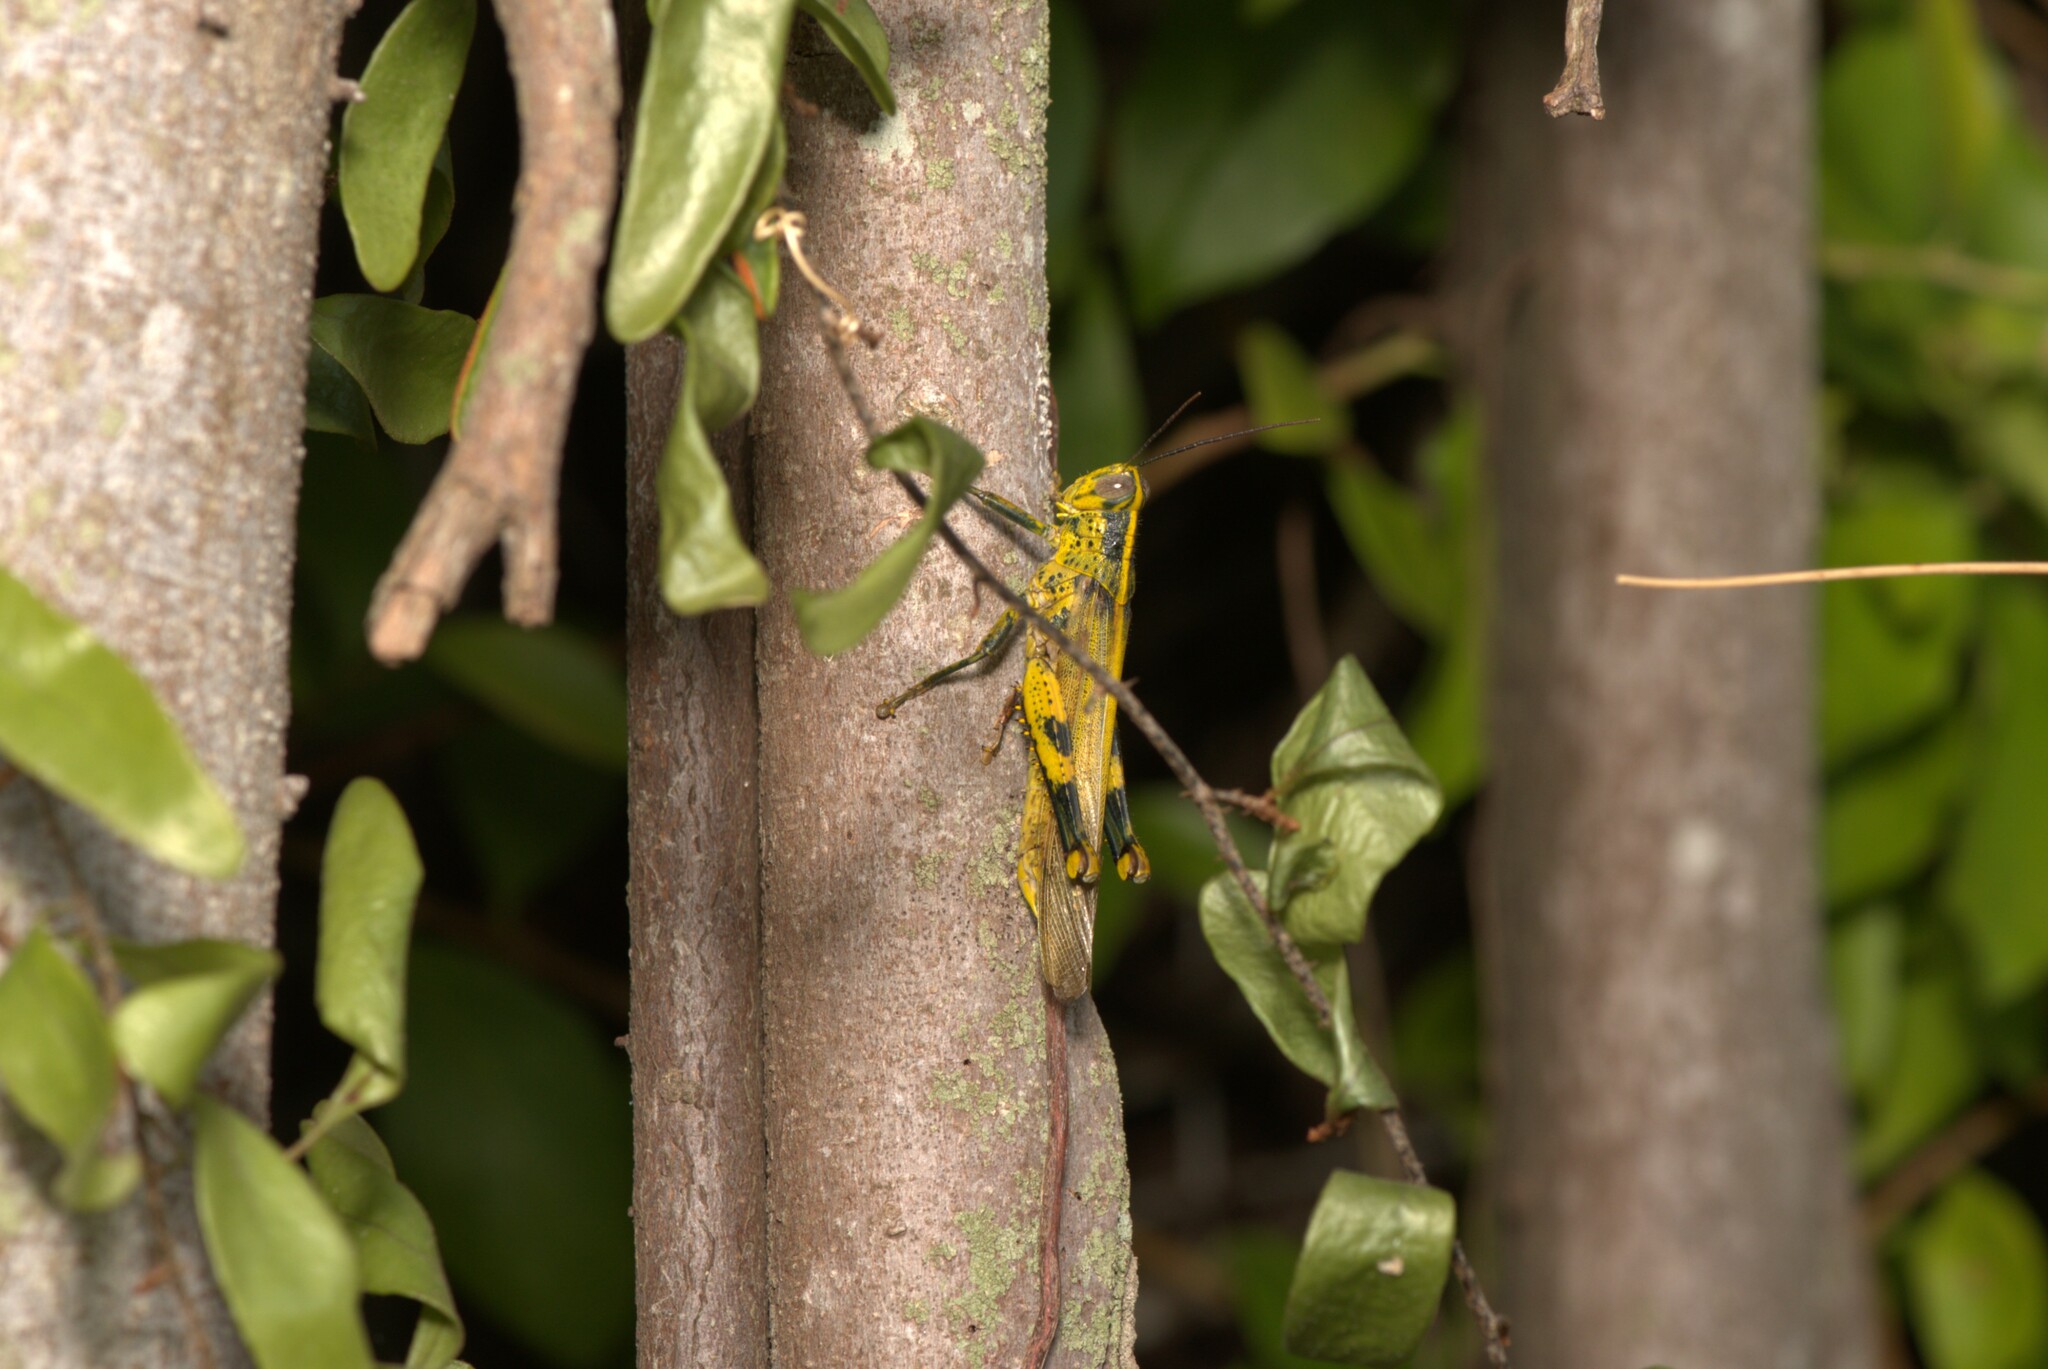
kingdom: Animalia
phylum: Arthropoda
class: Insecta
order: Orthoptera
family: Acrididae
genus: Valanga
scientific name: Valanga nigricornis
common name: Javanese bird grasshopper
